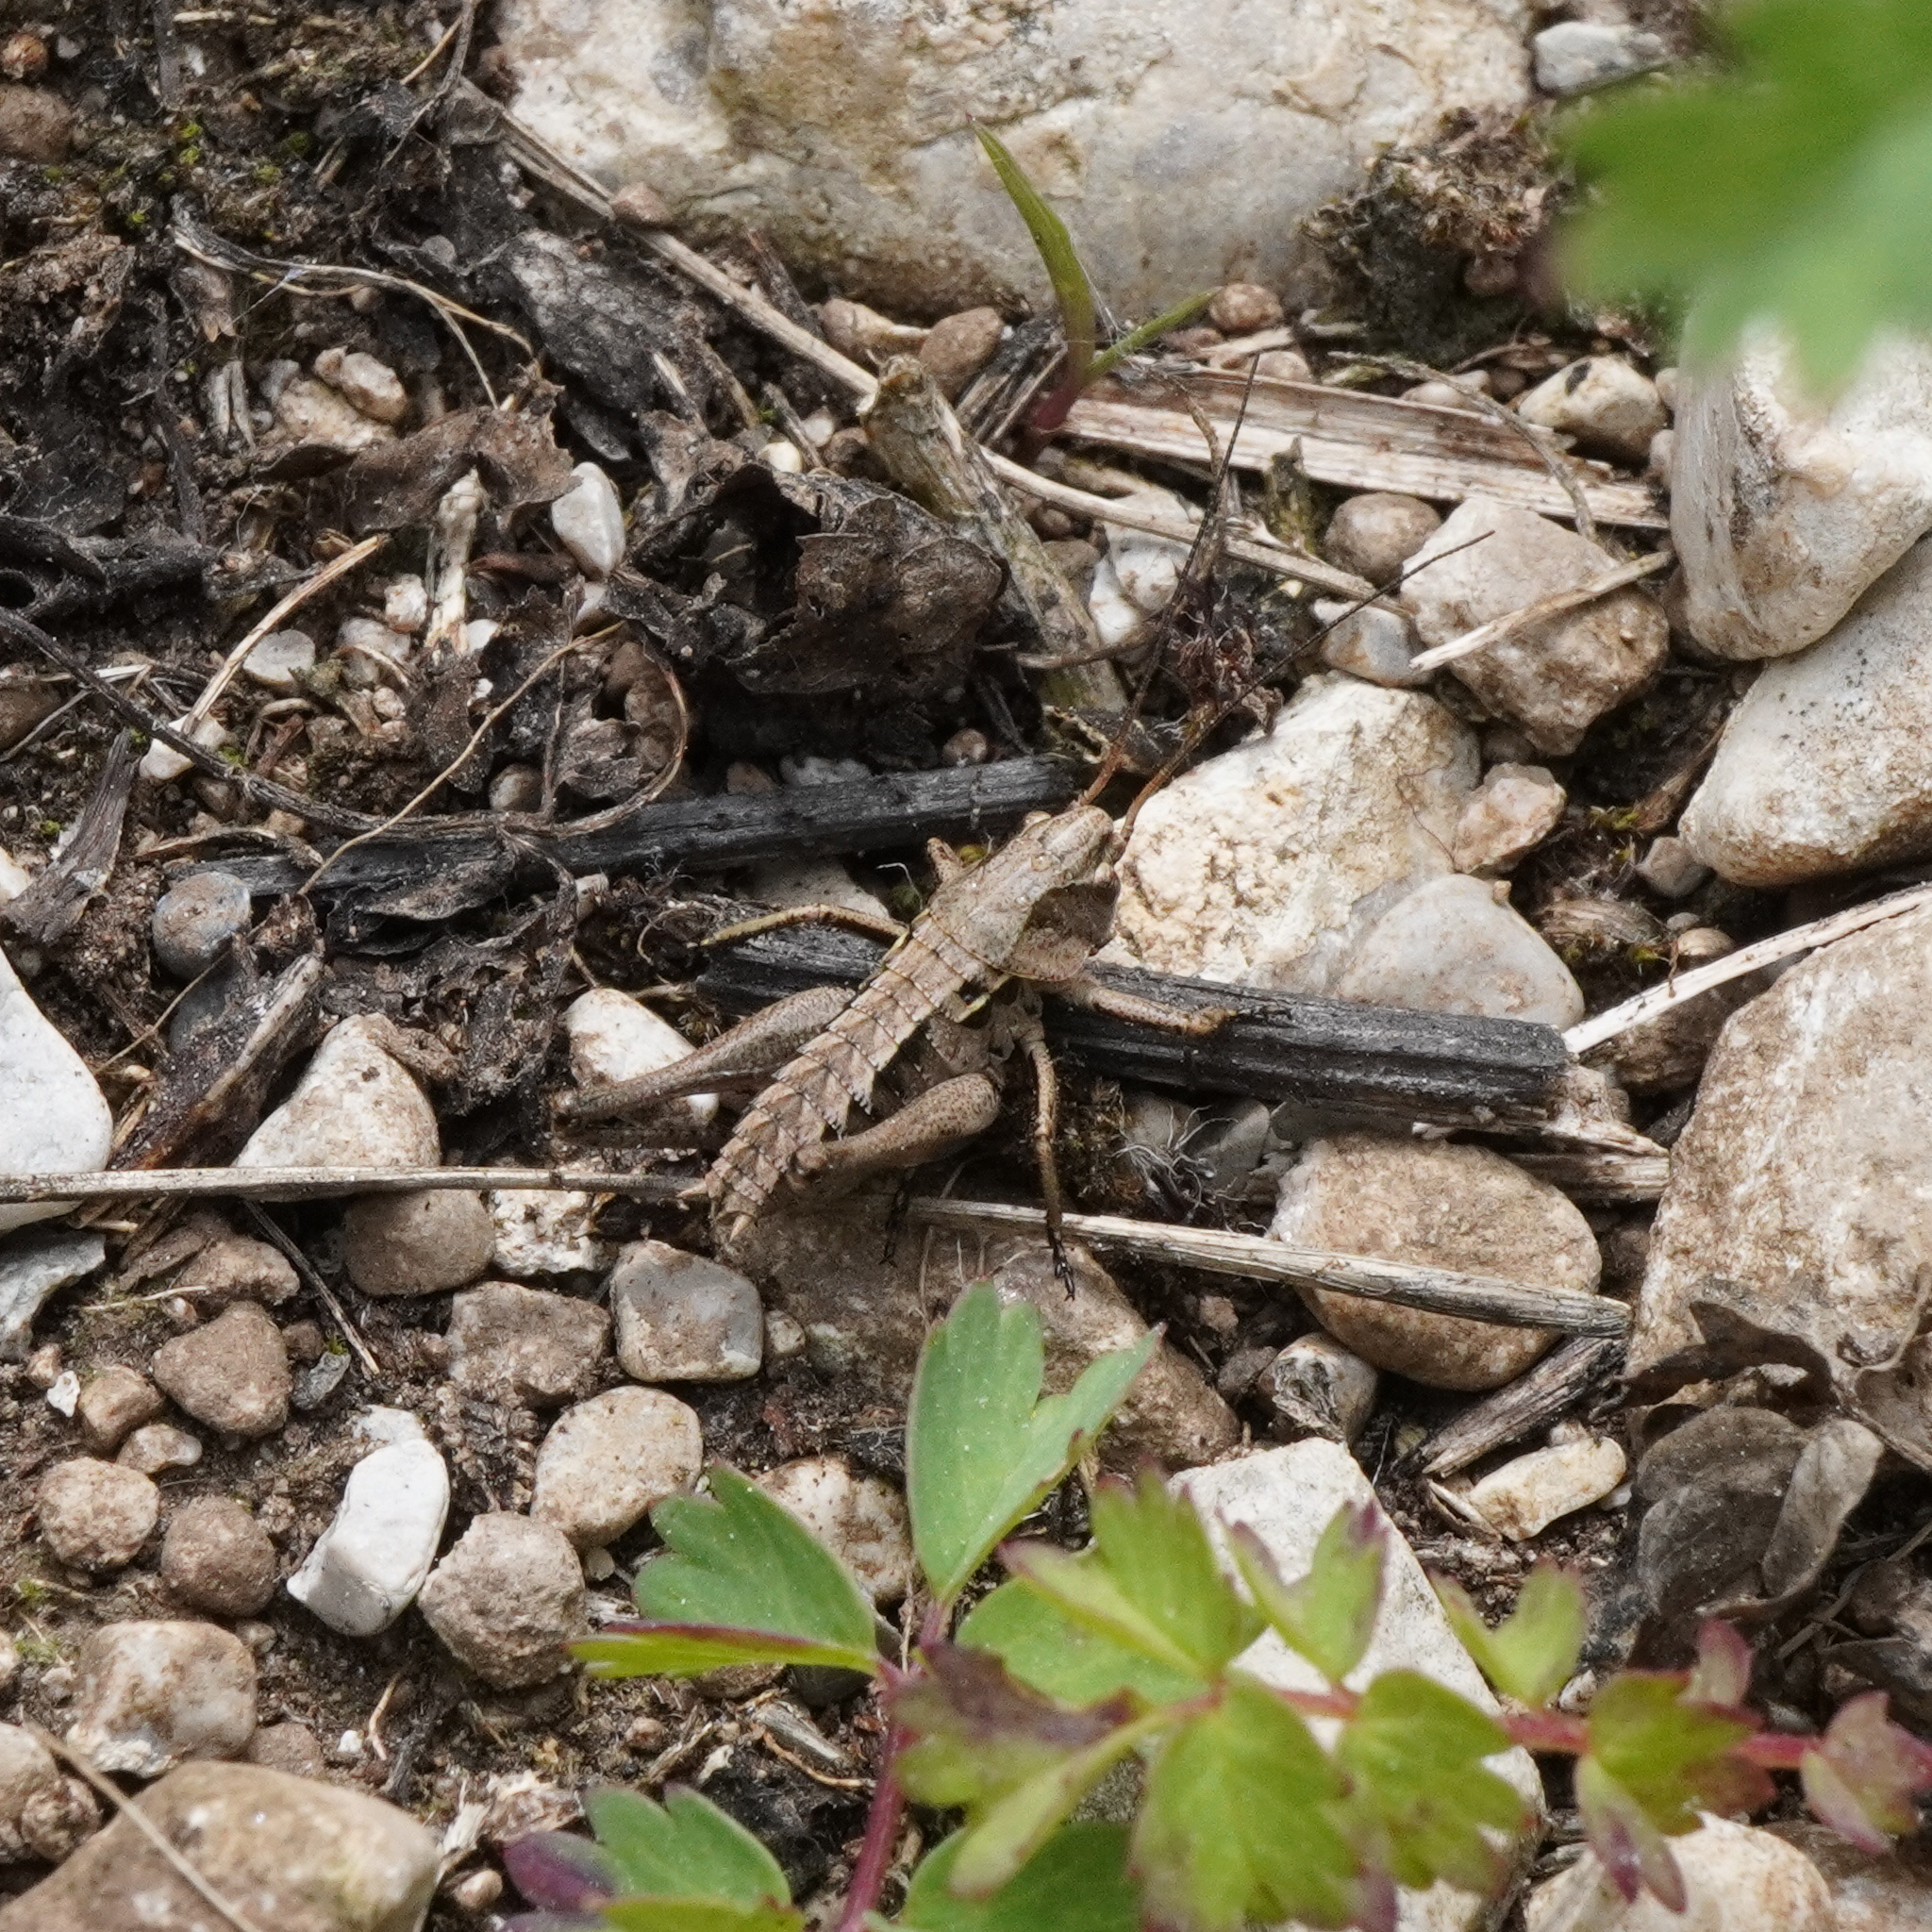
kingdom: Animalia
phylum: Arthropoda
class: Insecta
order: Orthoptera
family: Tettigoniidae
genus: Decticus
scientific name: Decticus verrucivorus
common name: Wart-biter
